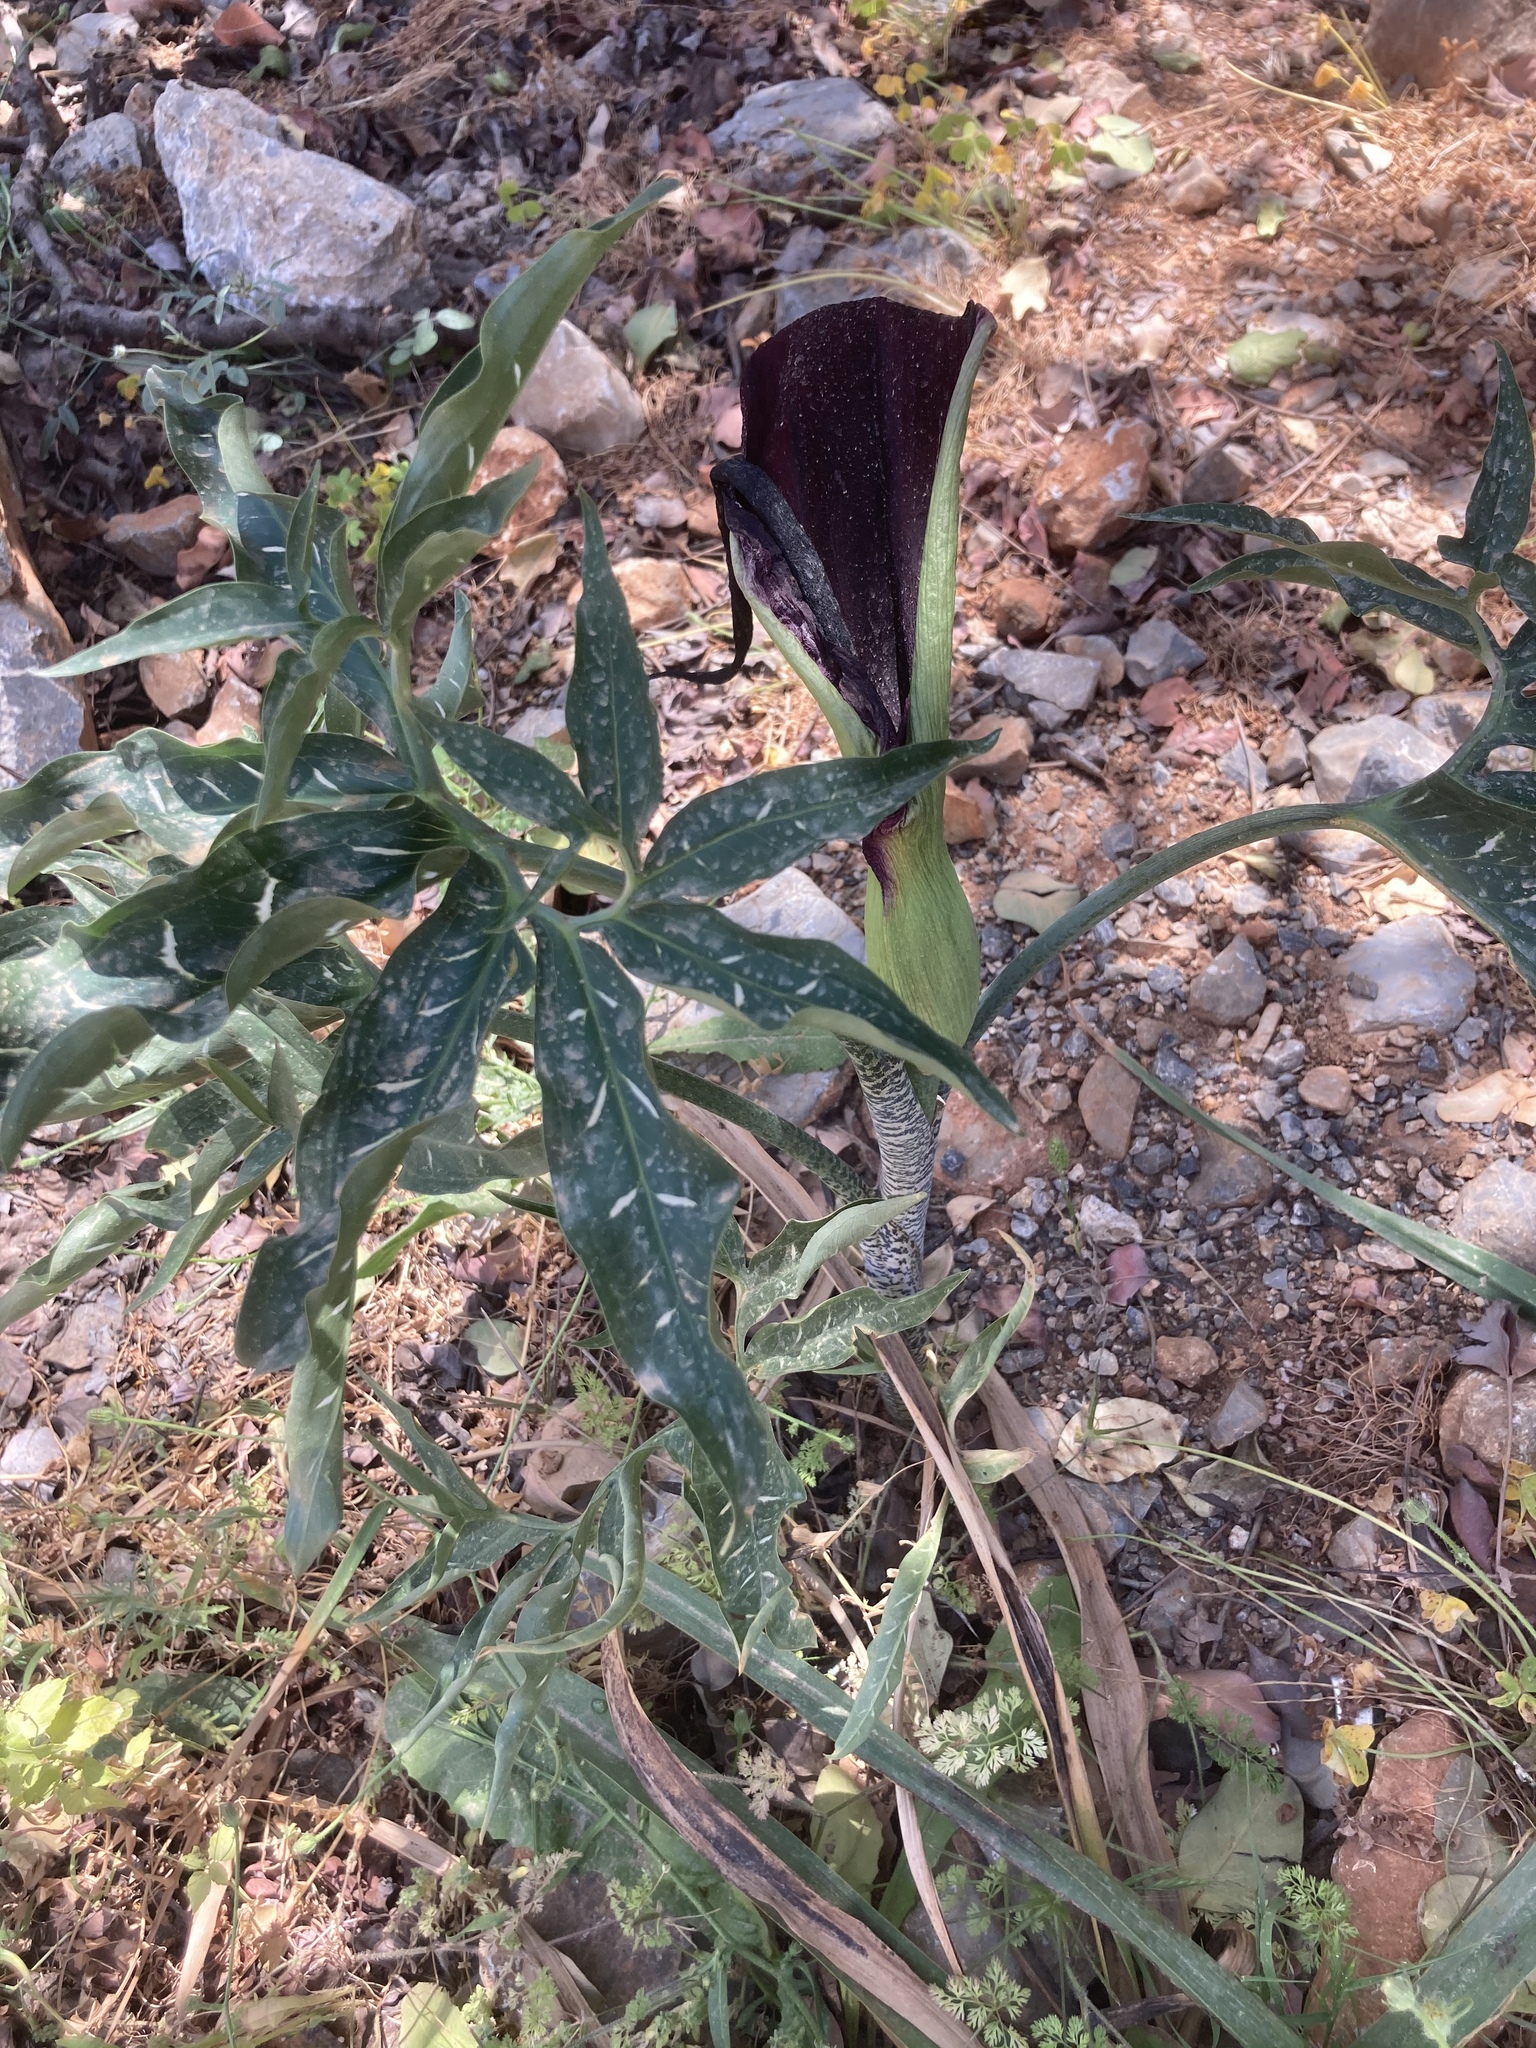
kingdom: Plantae
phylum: Tracheophyta
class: Liliopsida
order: Alismatales
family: Araceae
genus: Dracunculus
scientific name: Dracunculus vulgaris
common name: Dragon arum
